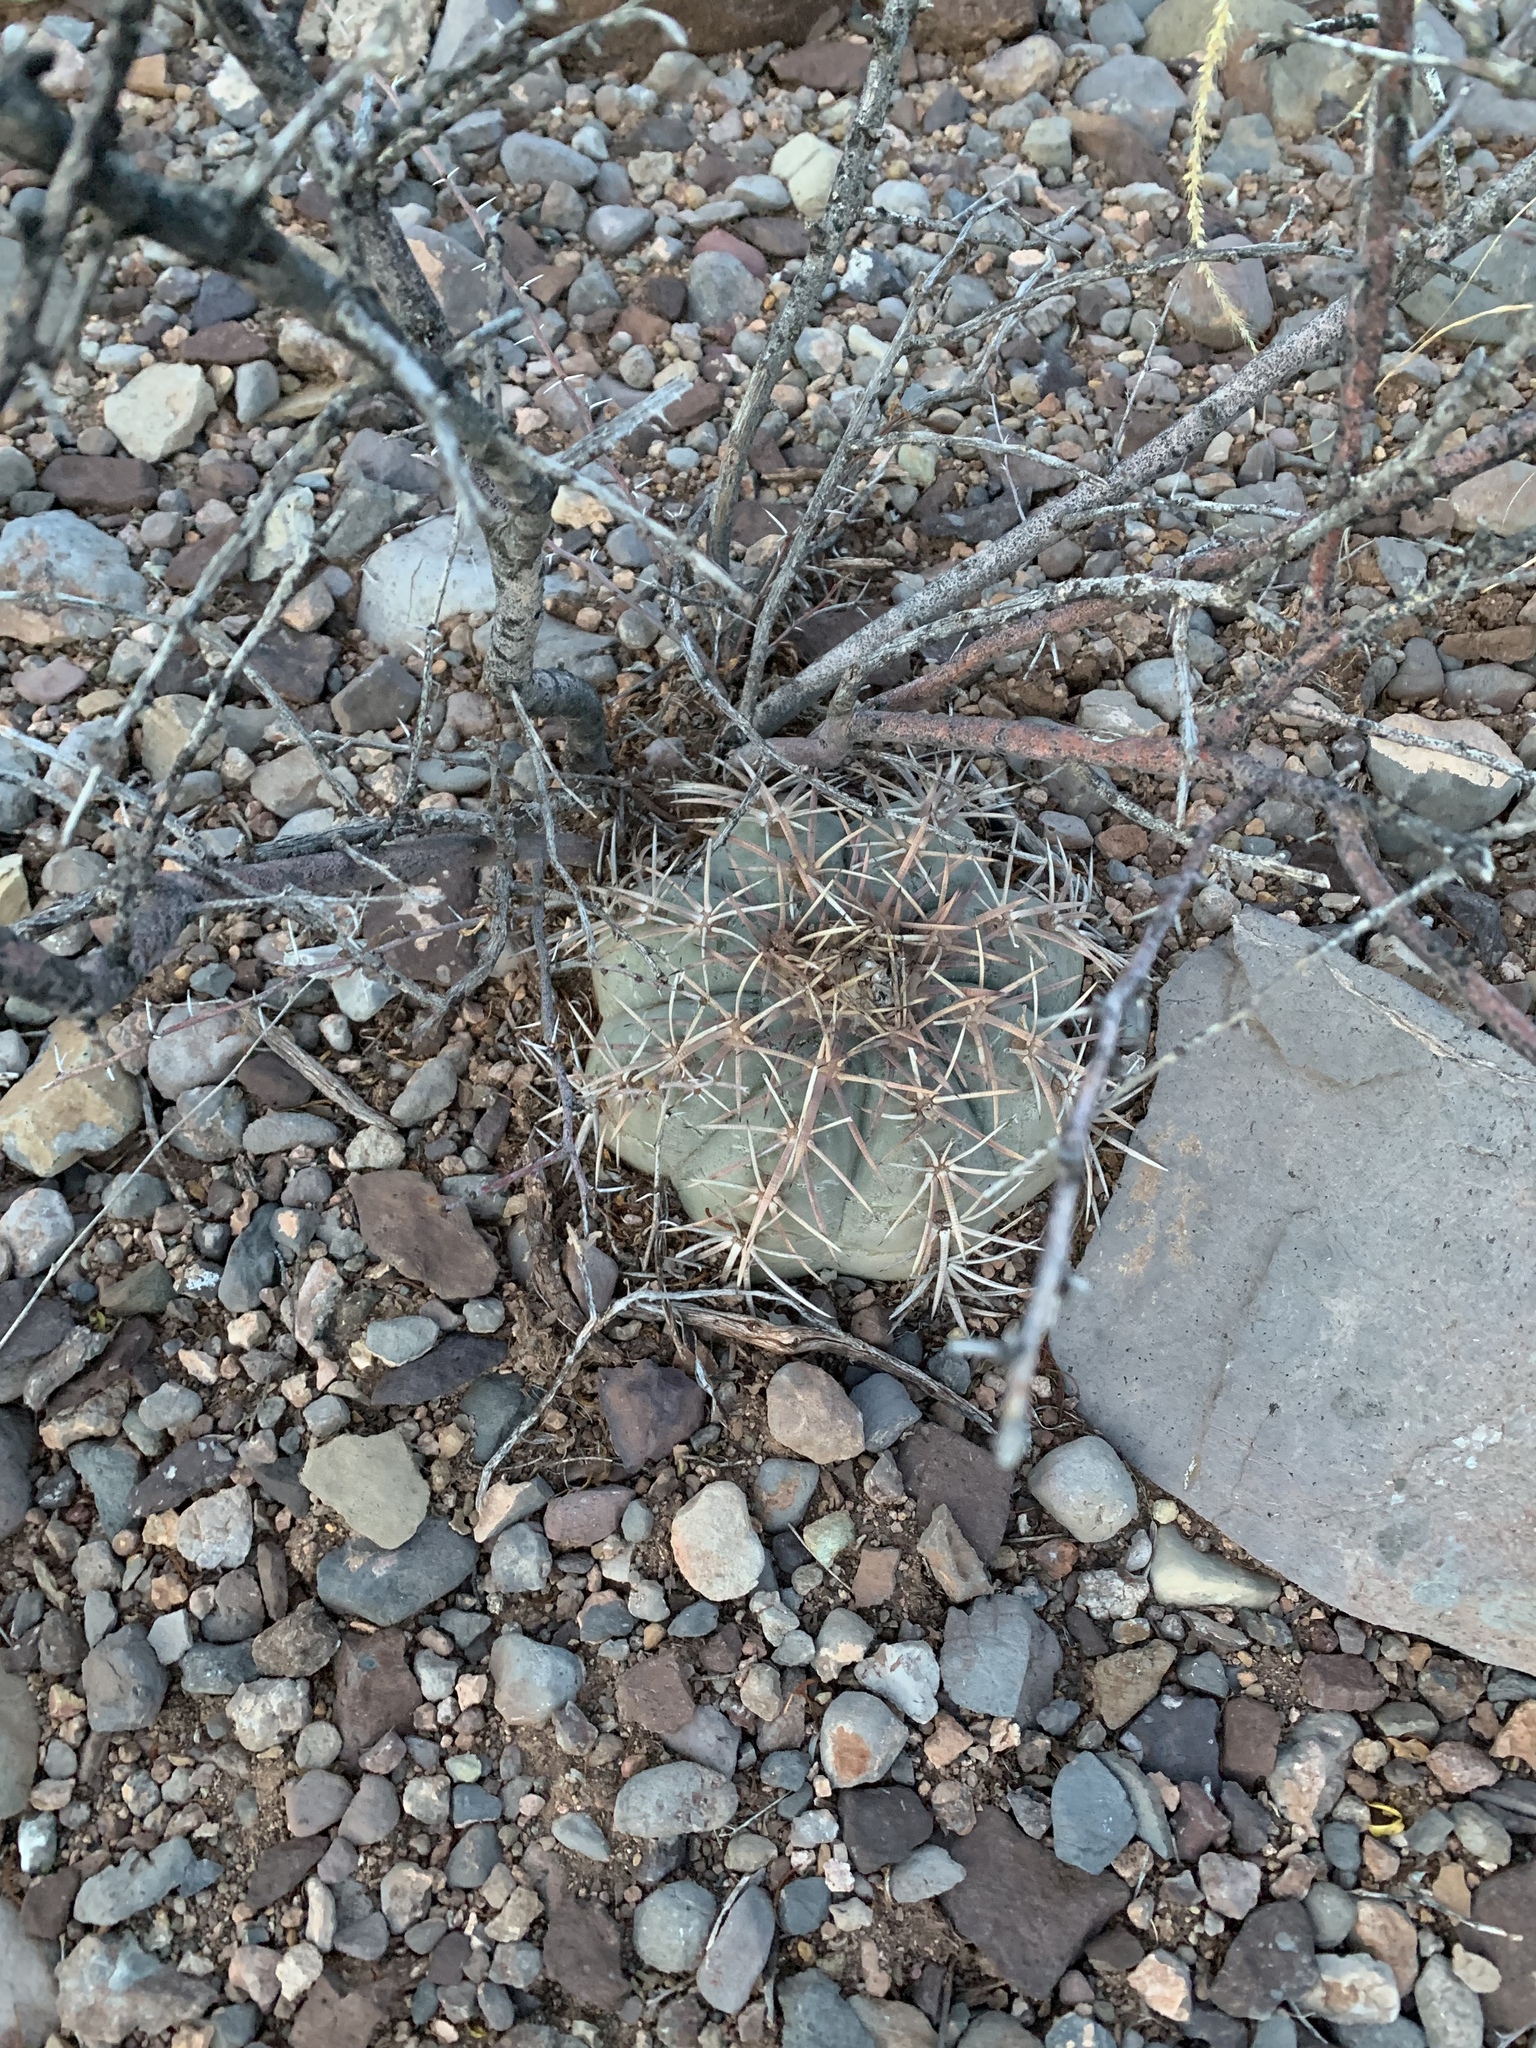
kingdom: Plantae
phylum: Tracheophyta
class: Magnoliopsida
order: Caryophyllales
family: Cactaceae
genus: Echinocactus
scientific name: Echinocactus horizonthalonius
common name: Devilshead
